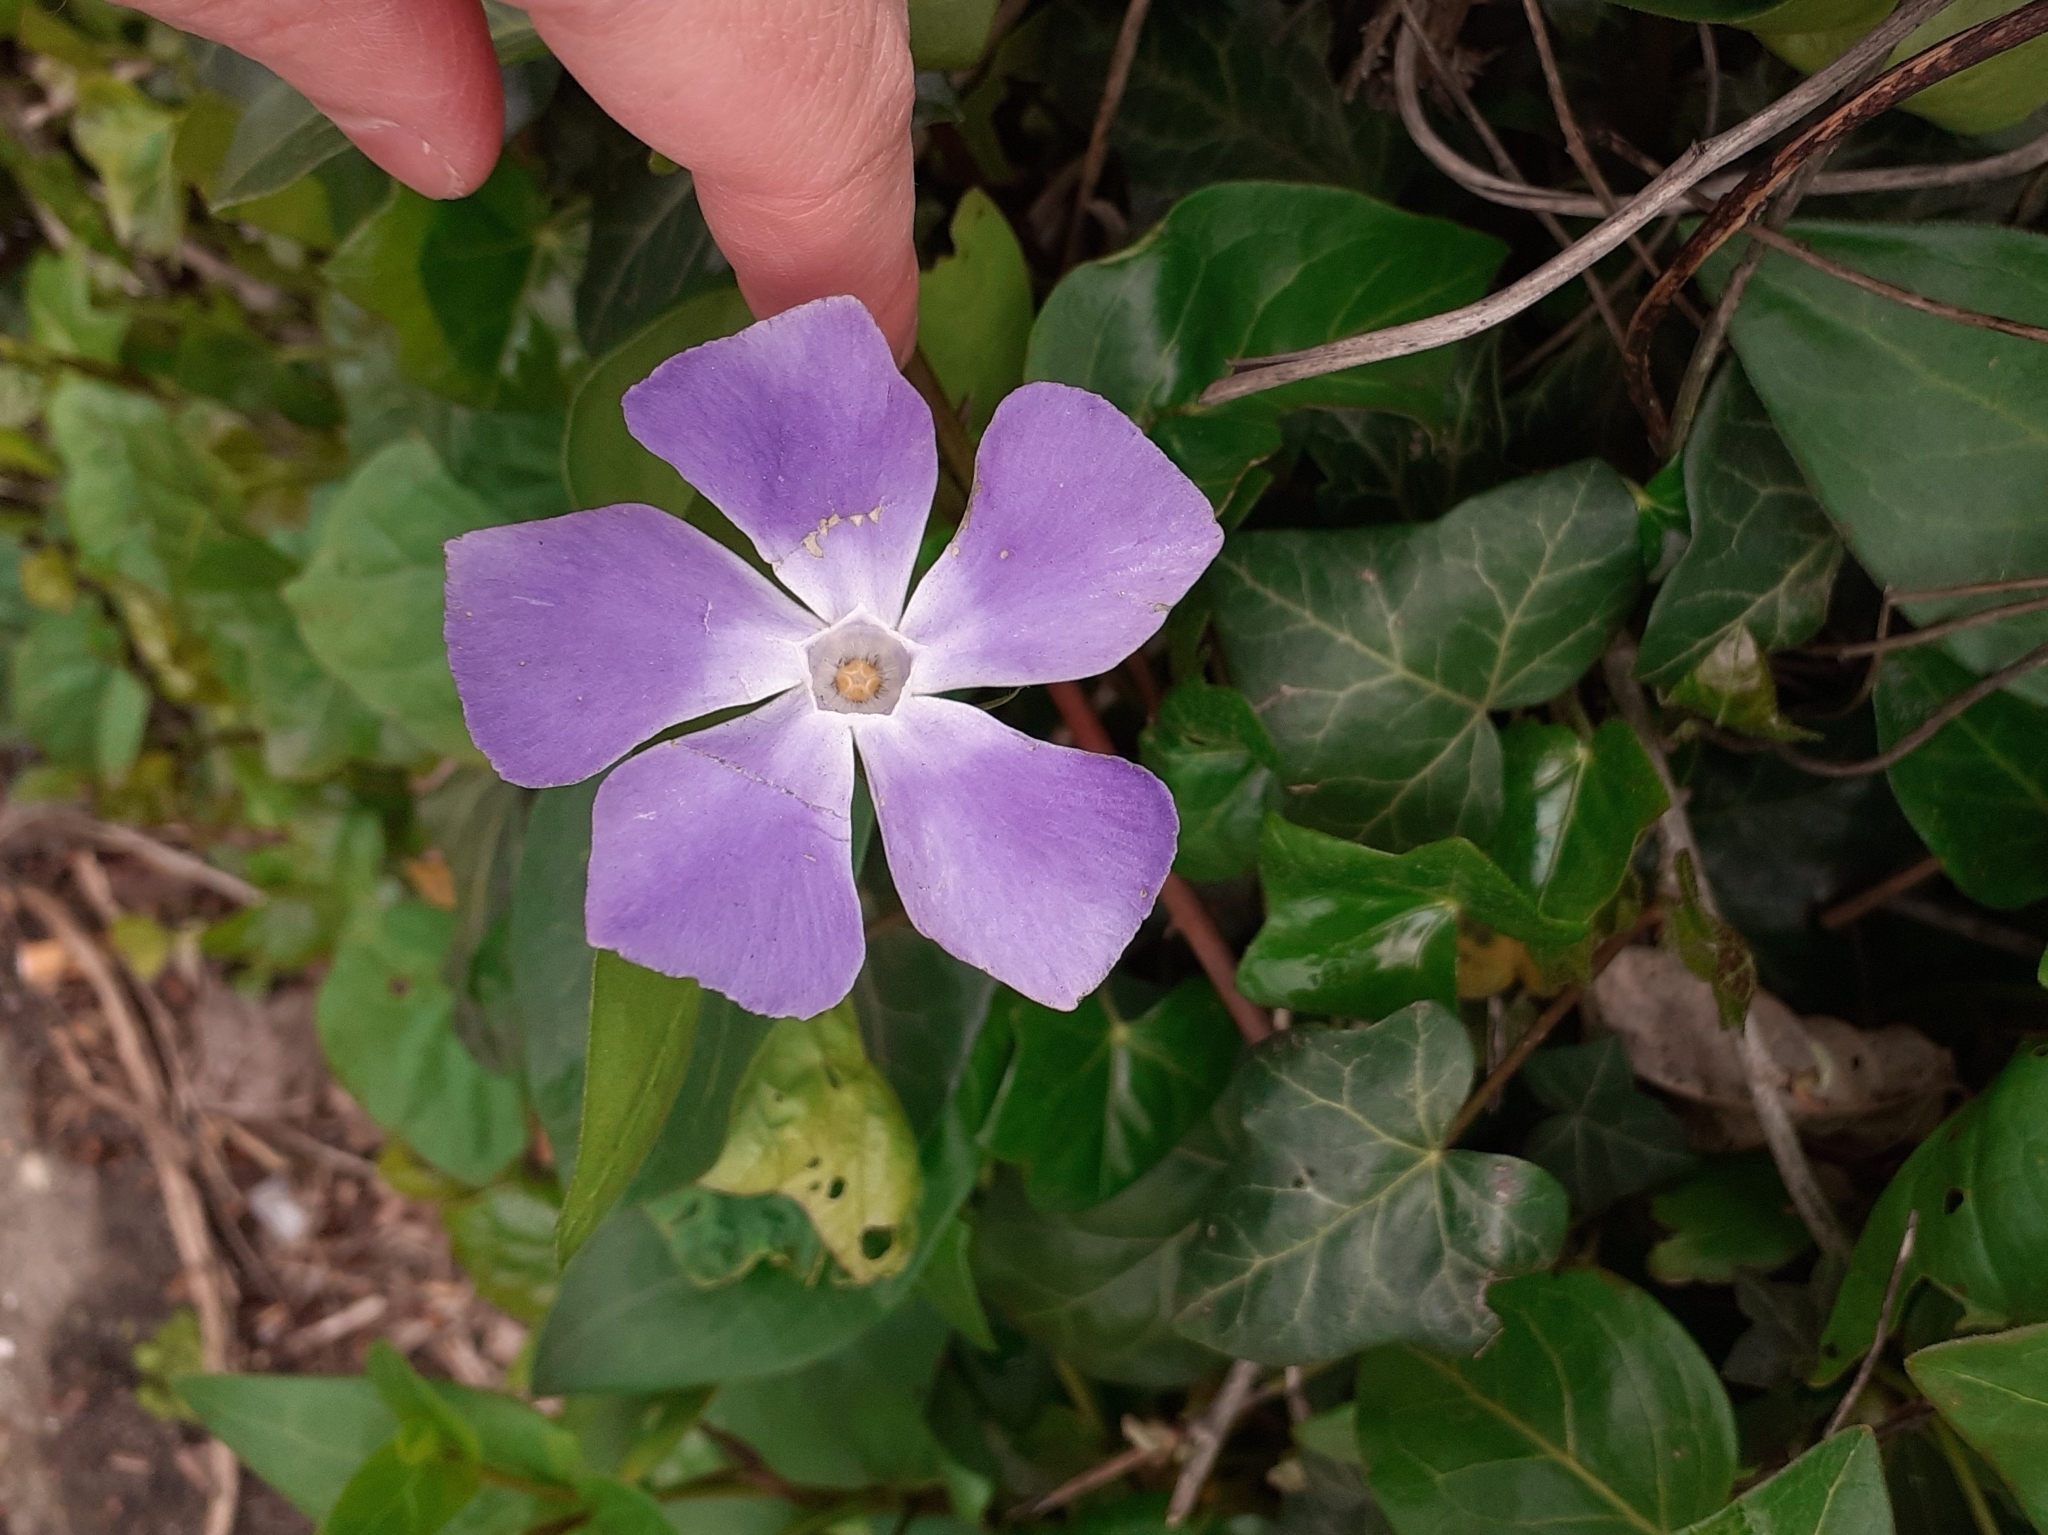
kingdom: Plantae
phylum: Tracheophyta
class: Magnoliopsida
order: Gentianales
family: Apocynaceae
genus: Vinca
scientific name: Vinca major
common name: Greater periwinkle
